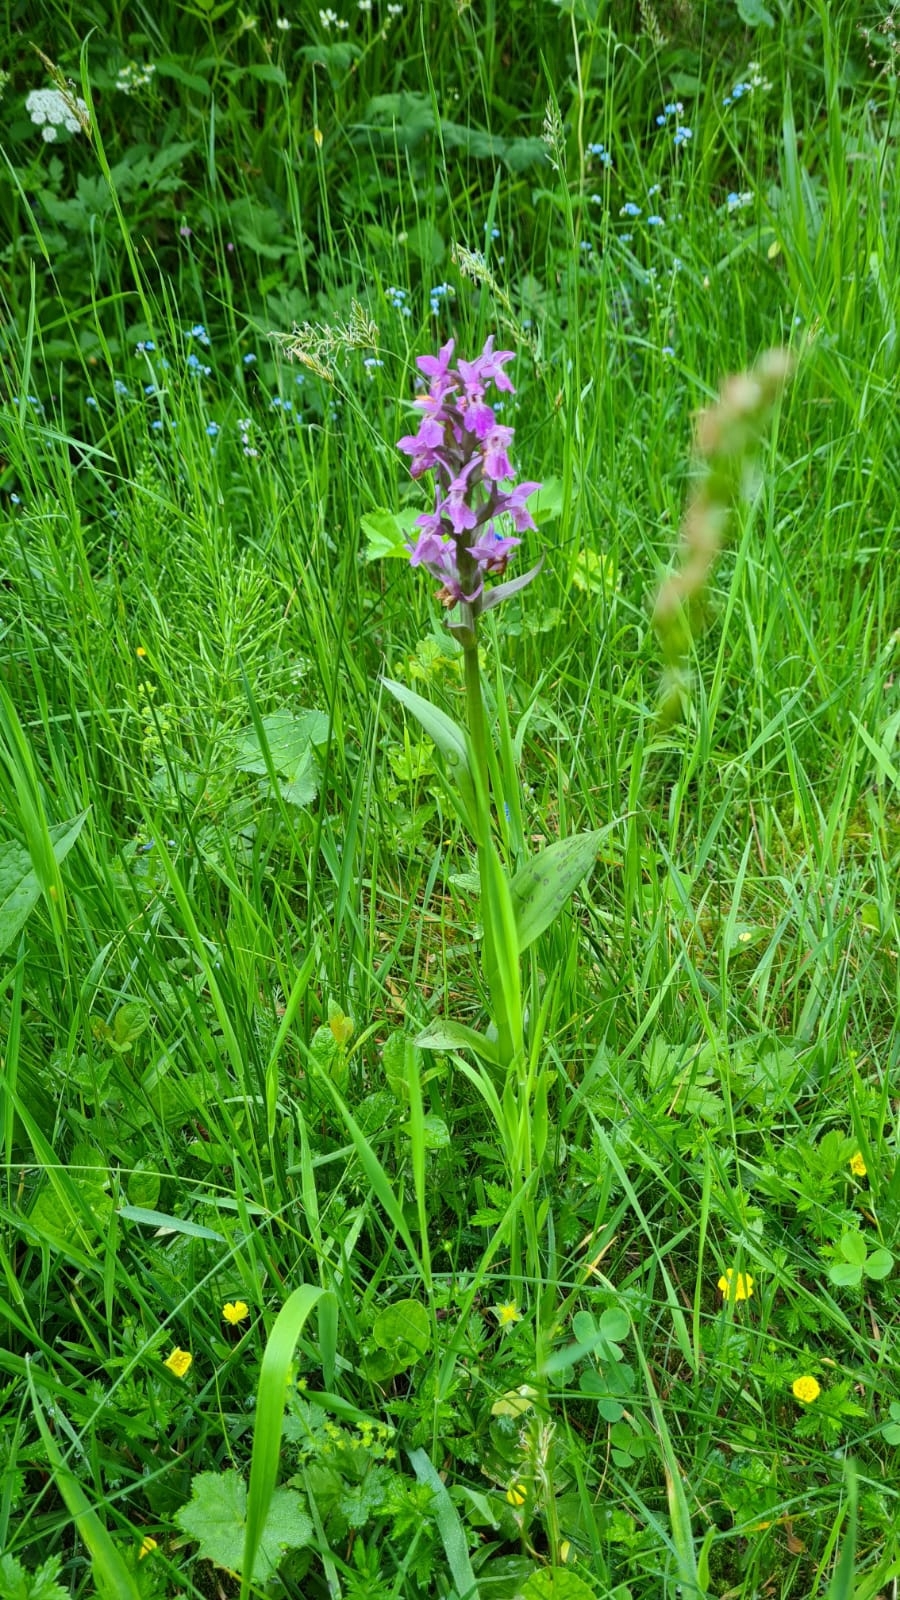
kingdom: Plantae
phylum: Tracheophyta
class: Liliopsida
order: Asparagales
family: Orchidaceae
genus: Dactylorhiza
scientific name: Dactylorhiza majalis
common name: Marsh orchid
